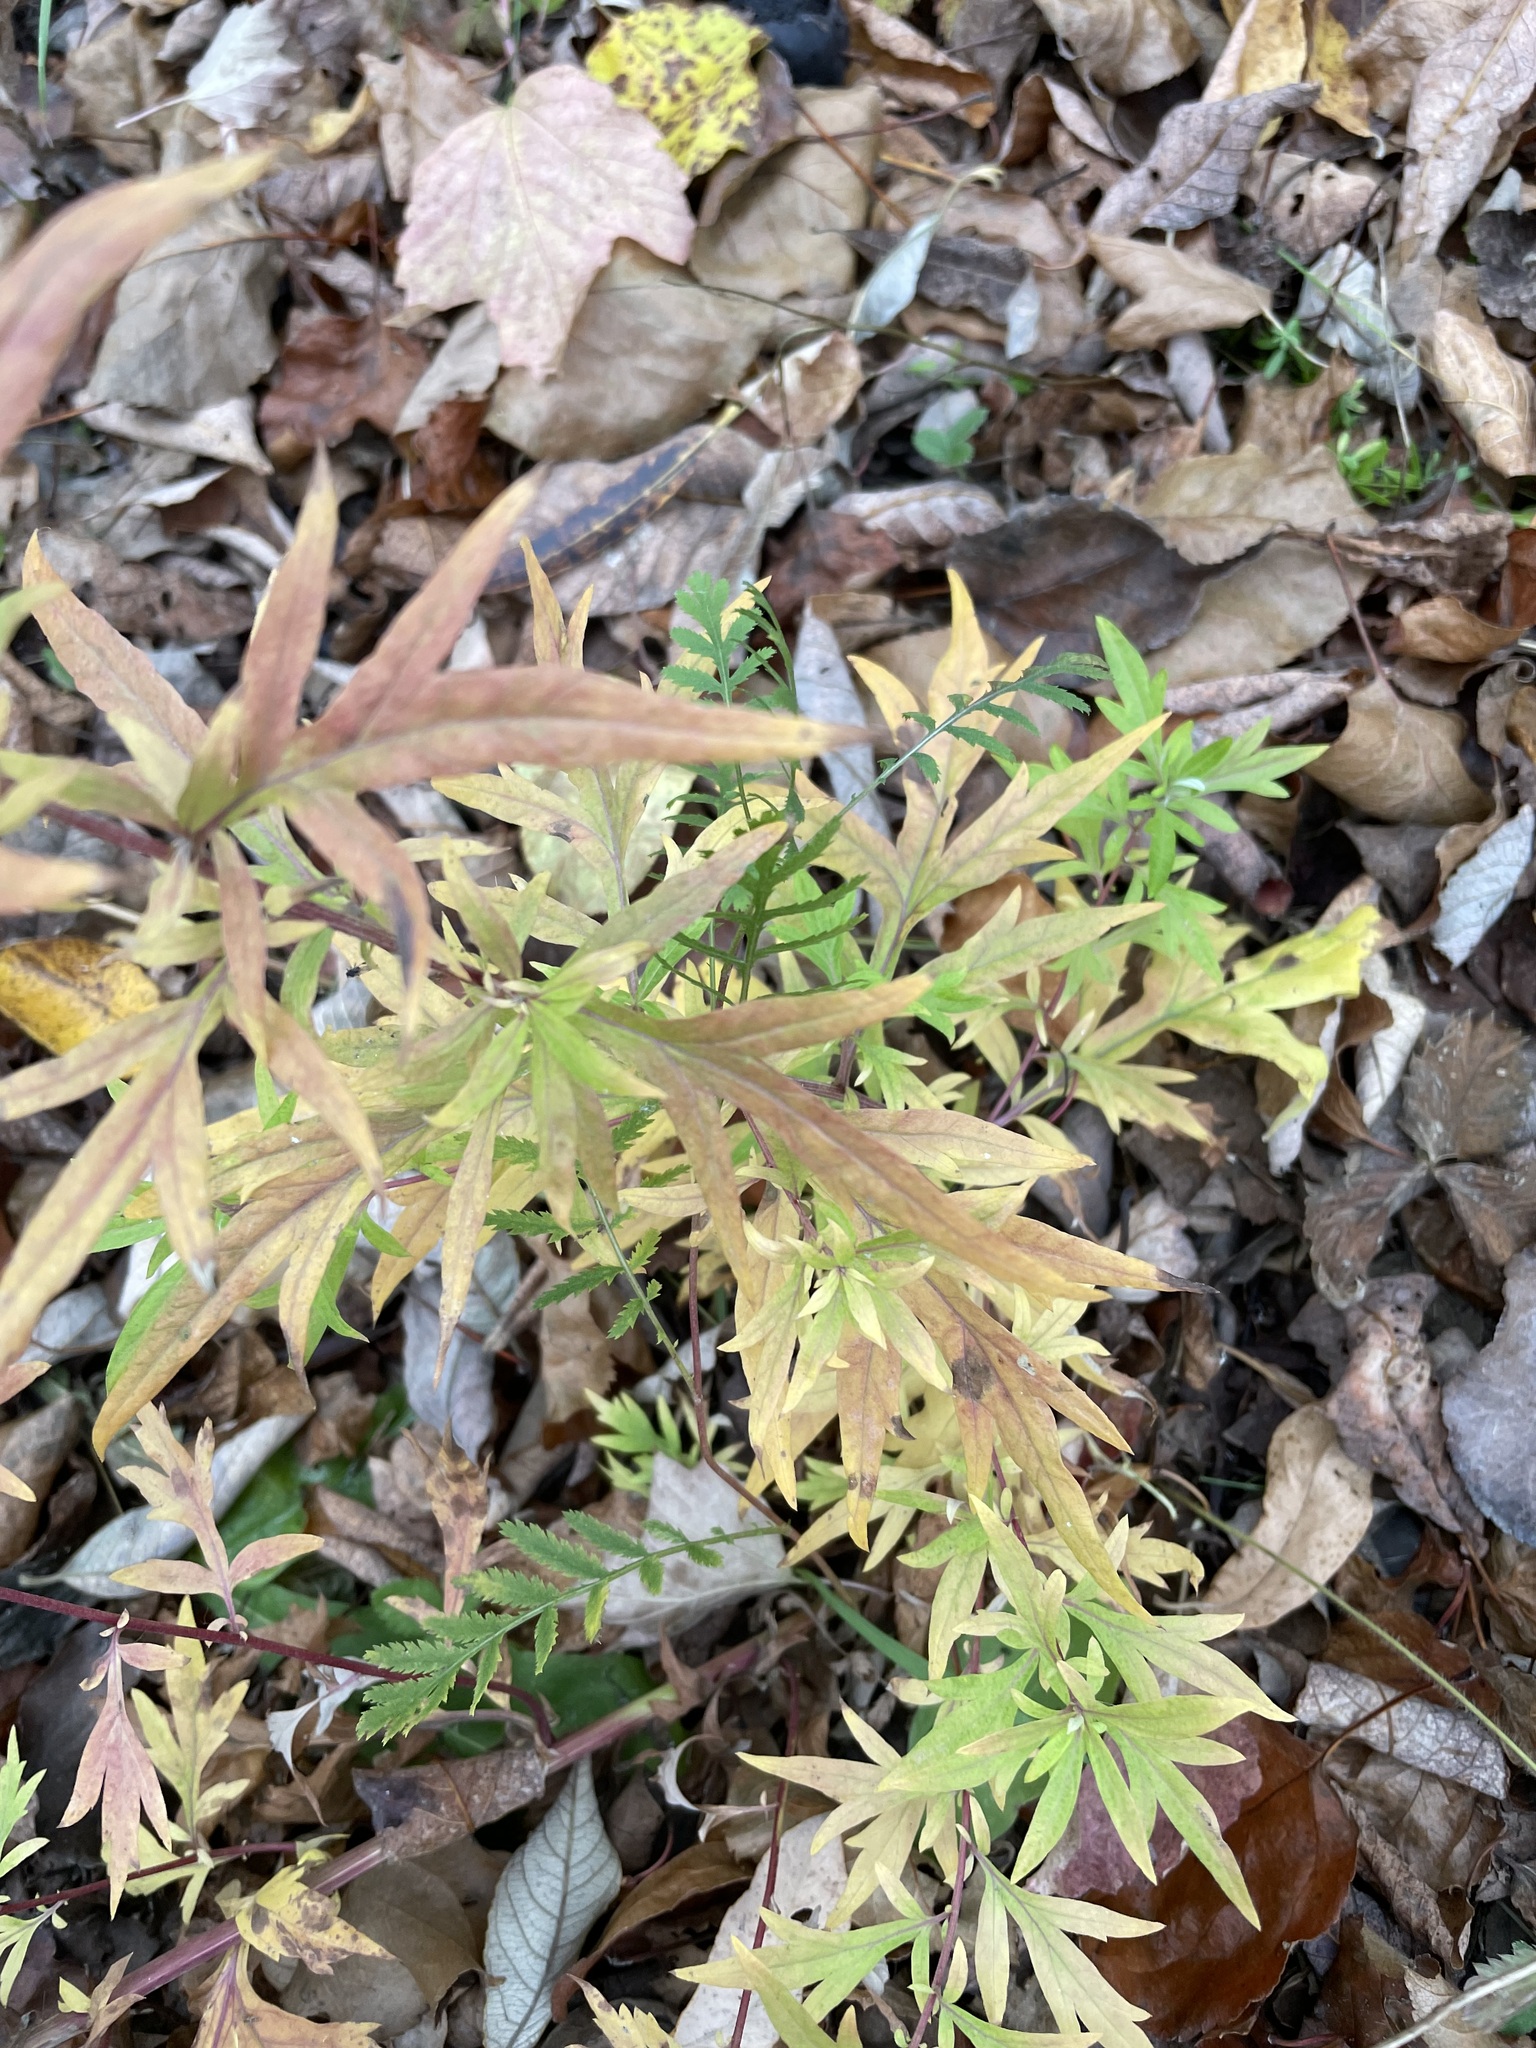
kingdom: Plantae
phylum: Tracheophyta
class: Magnoliopsida
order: Asterales
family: Asteraceae
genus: Artemisia
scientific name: Artemisia vulgaris
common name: Mugwort
